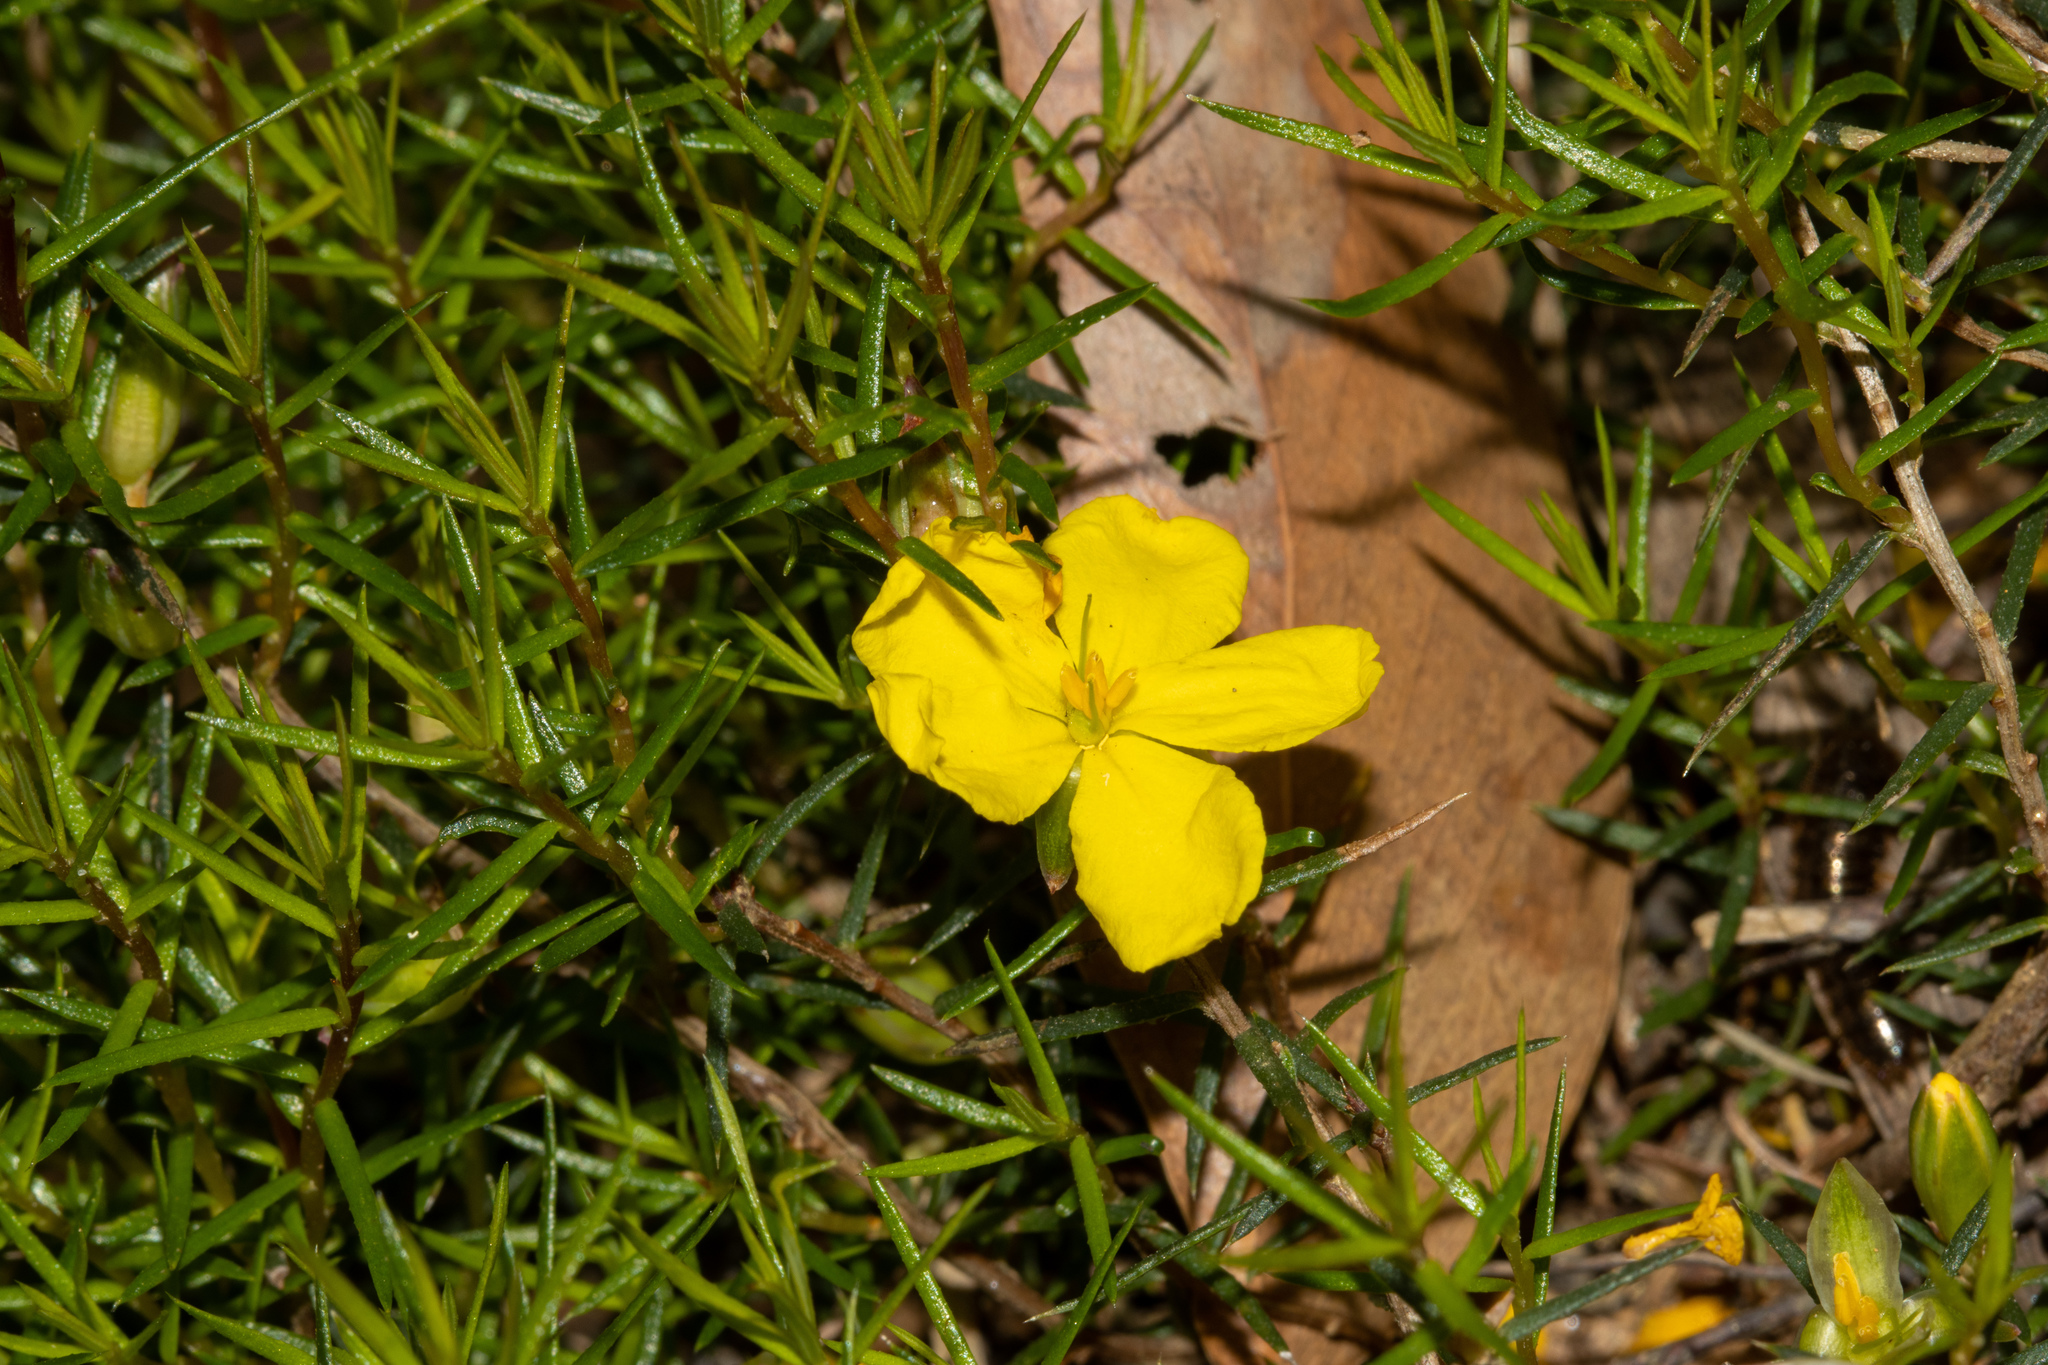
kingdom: Plantae
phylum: Tracheophyta
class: Magnoliopsida
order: Dilleniales
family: Dilleniaceae
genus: Hibbertia
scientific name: Hibbertia exutiacies
